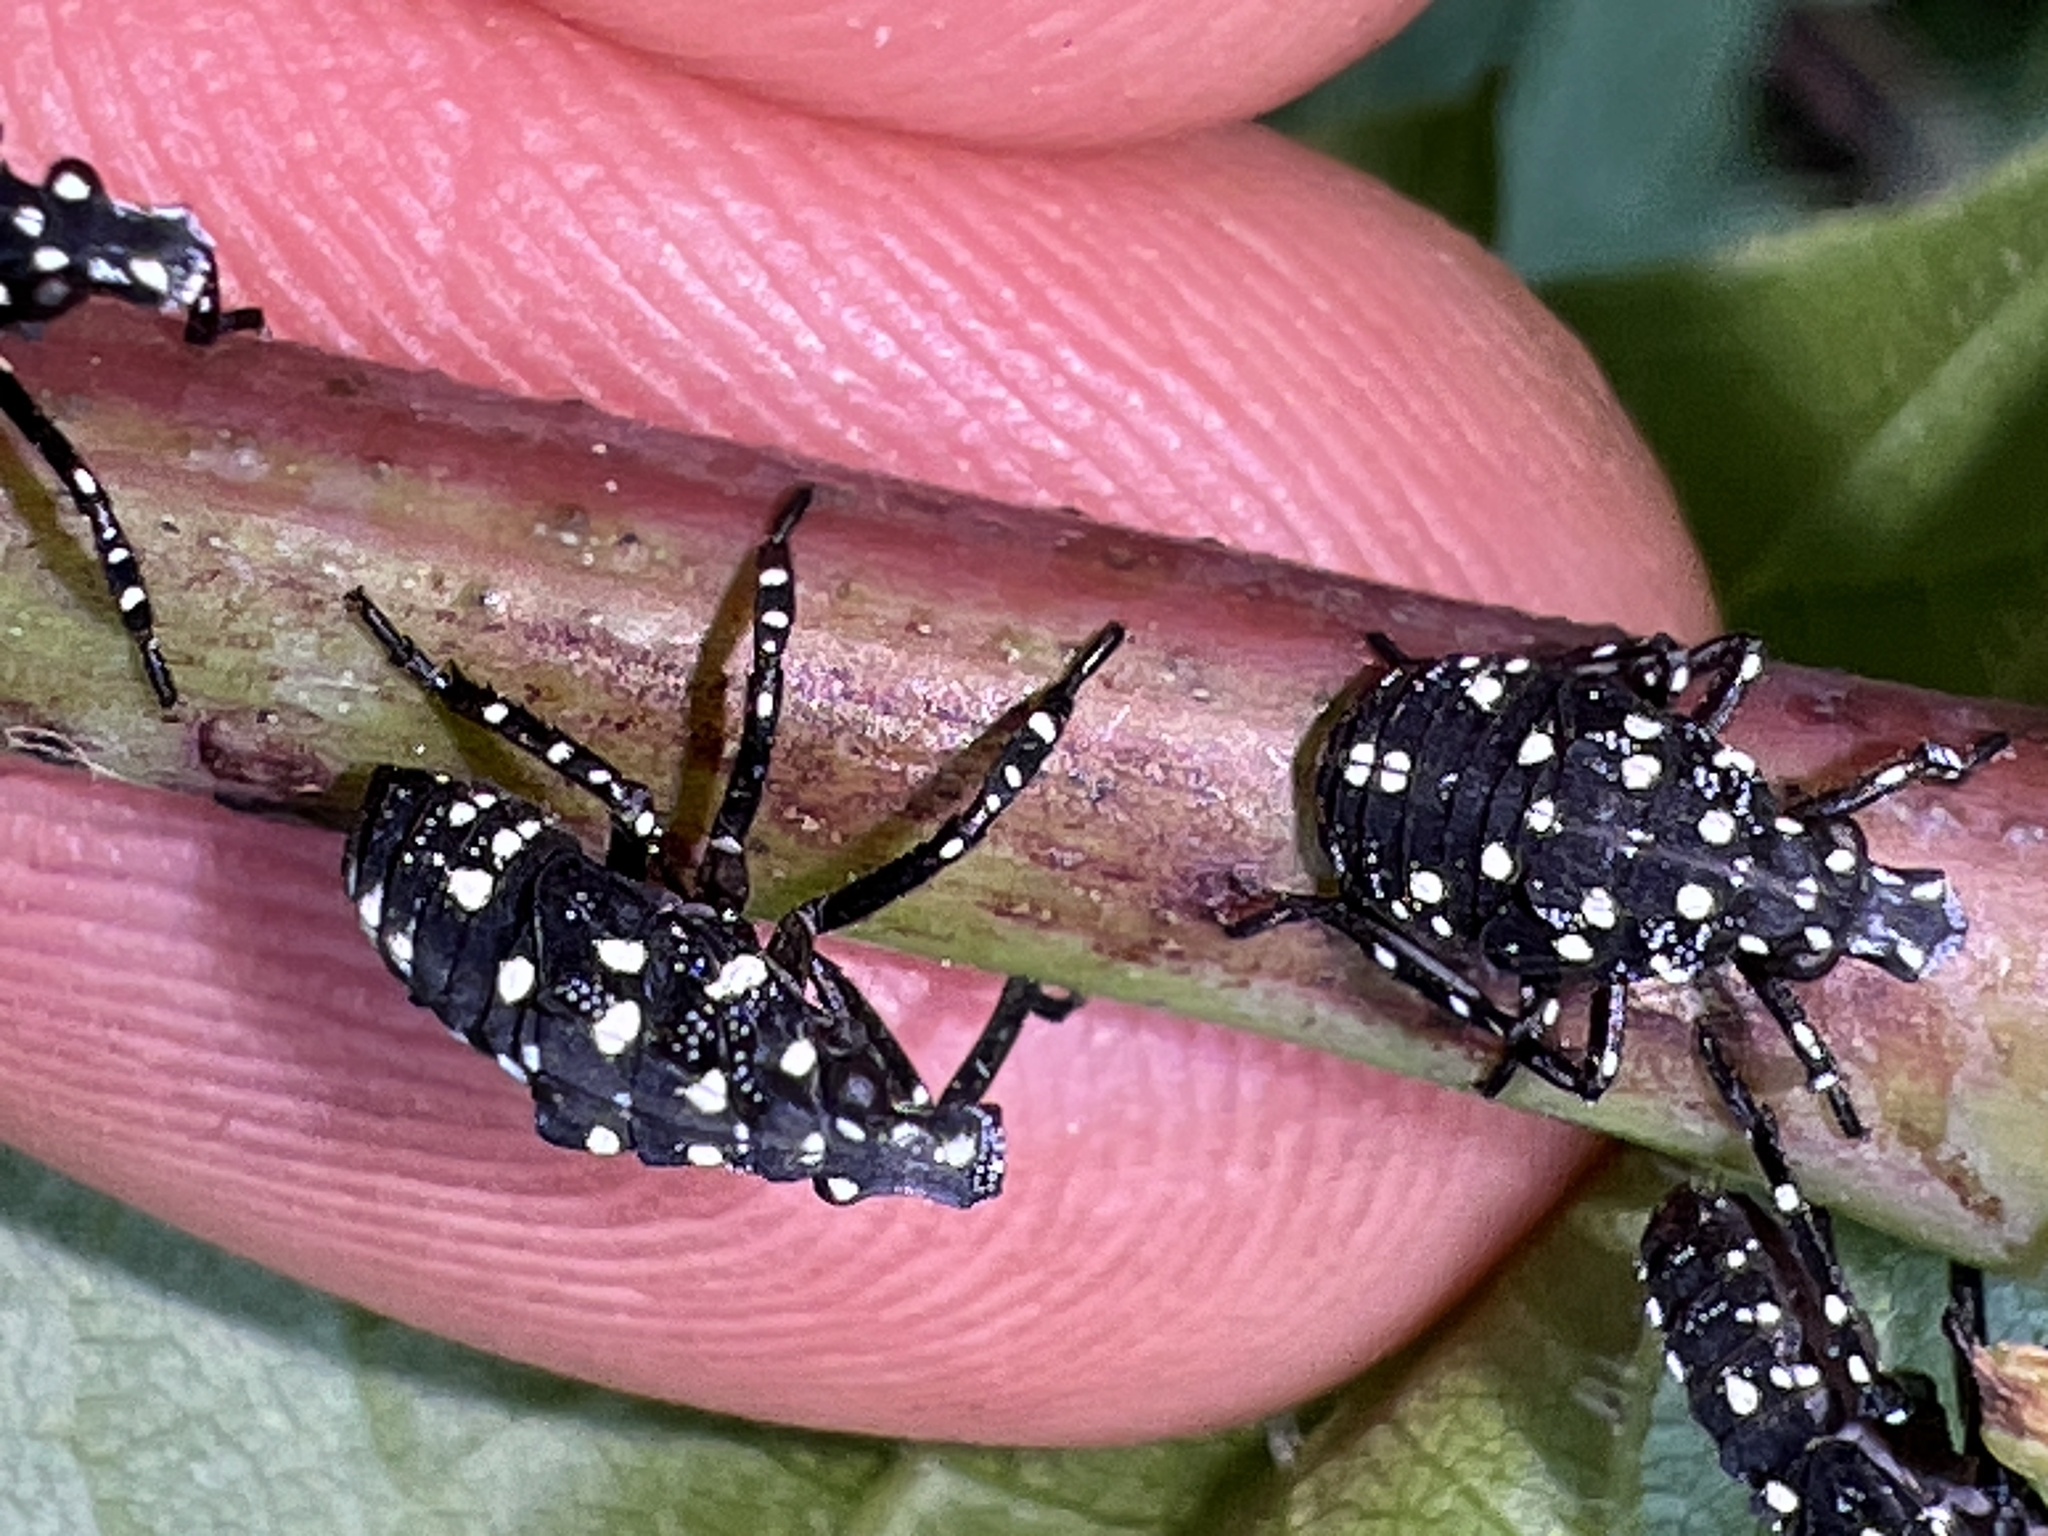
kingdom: Animalia
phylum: Arthropoda
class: Insecta
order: Hemiptera
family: Fulgoridae
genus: Lycorma
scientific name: Lycorma delicatula
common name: Spotted lanternfly
